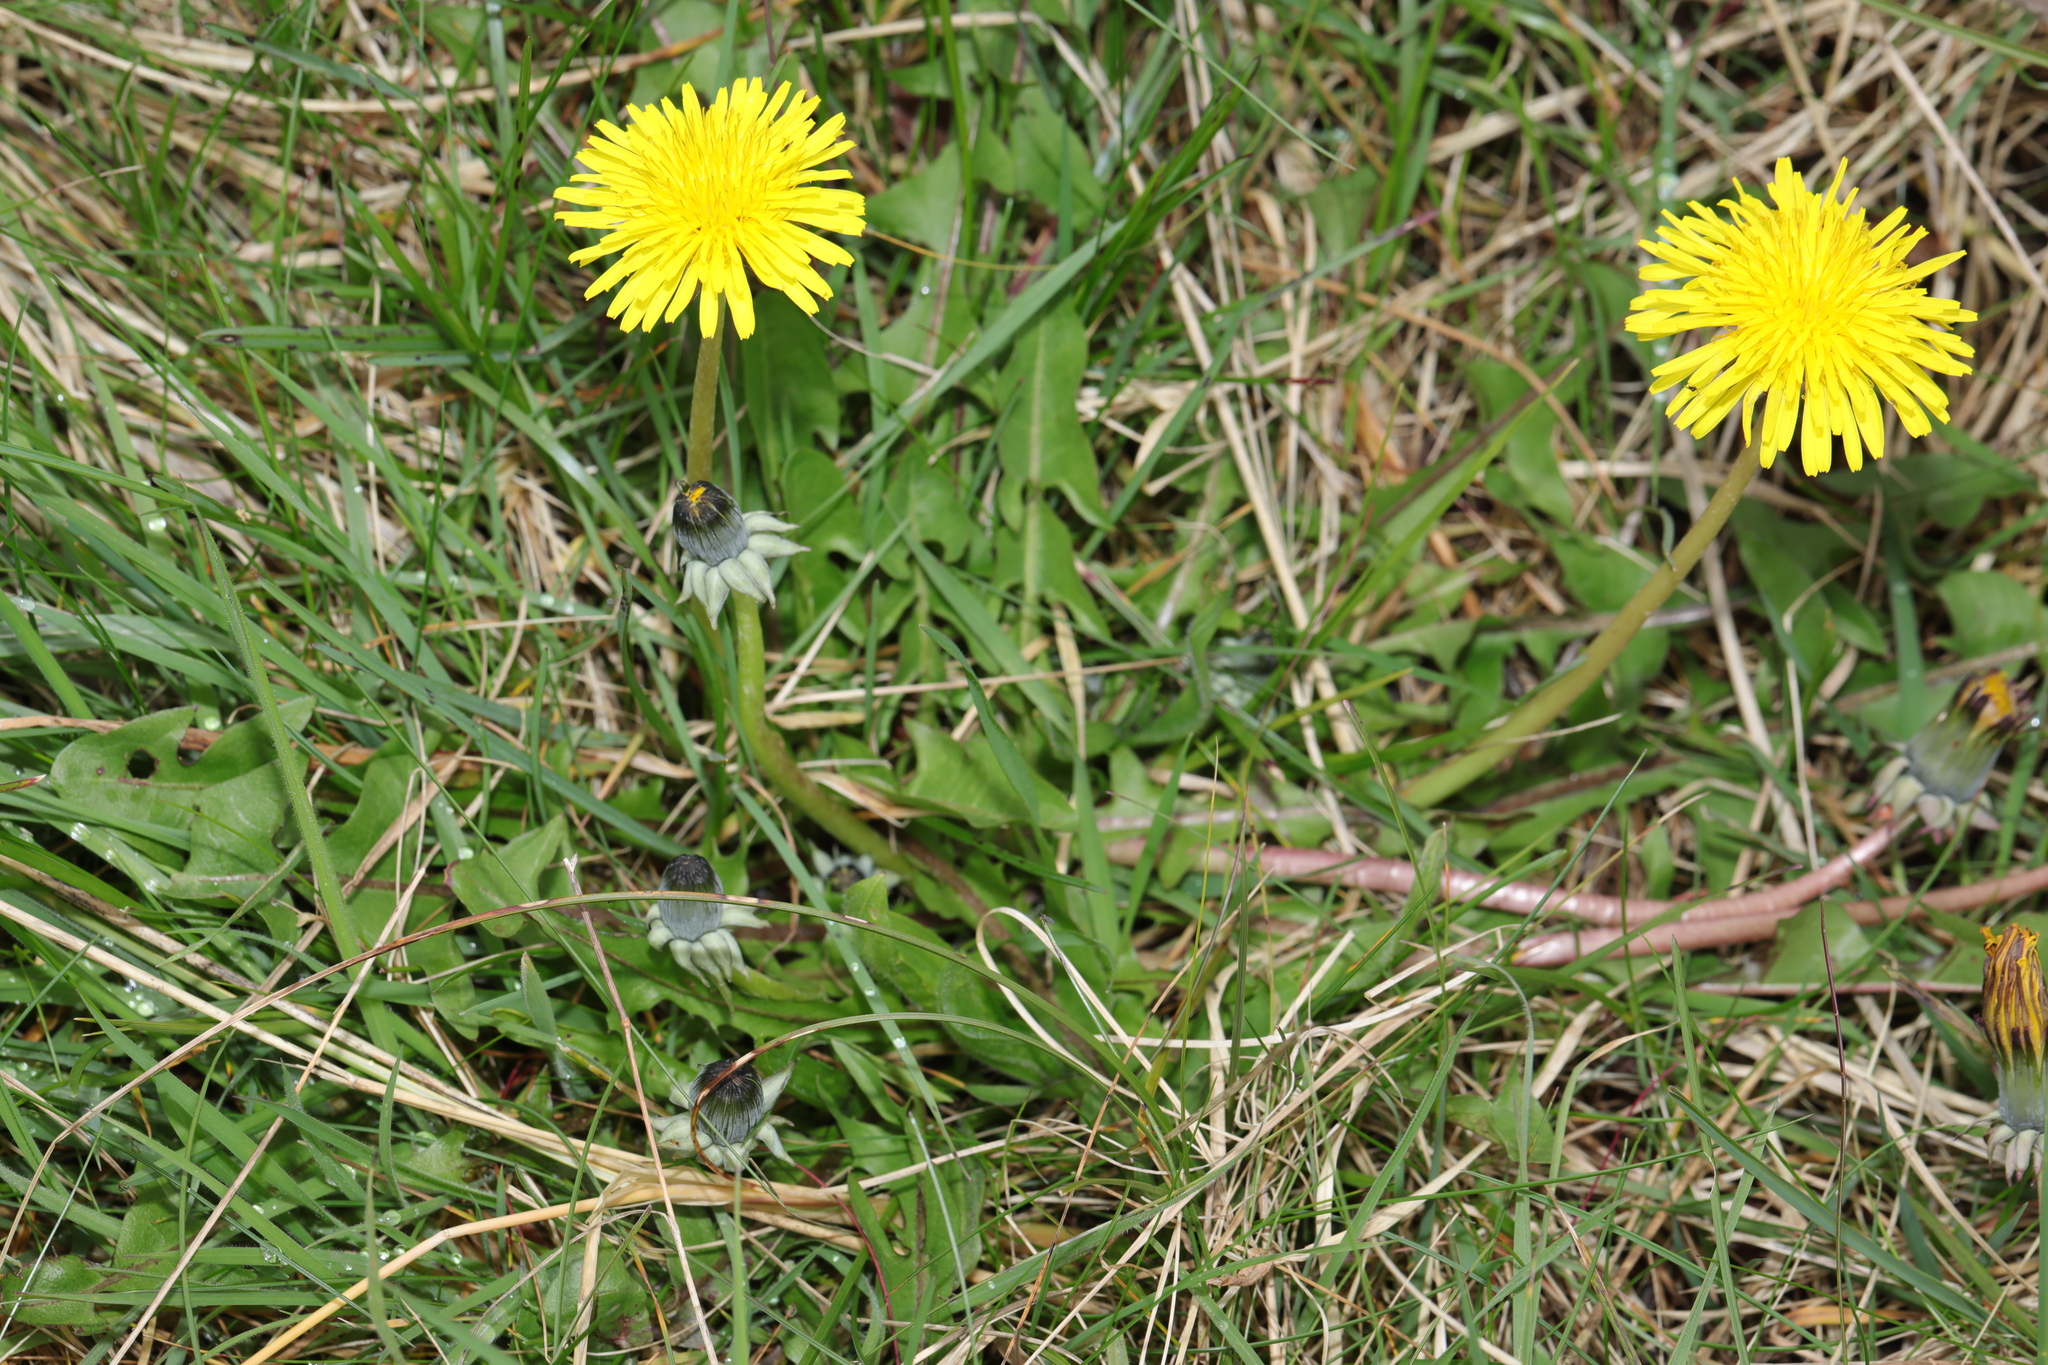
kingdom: Plantae
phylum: Tracheophyta
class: Magnoliopsida
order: Asterales
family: Asteraceae
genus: Taraxacum
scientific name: Taraxacum officinale
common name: Common dandelion
